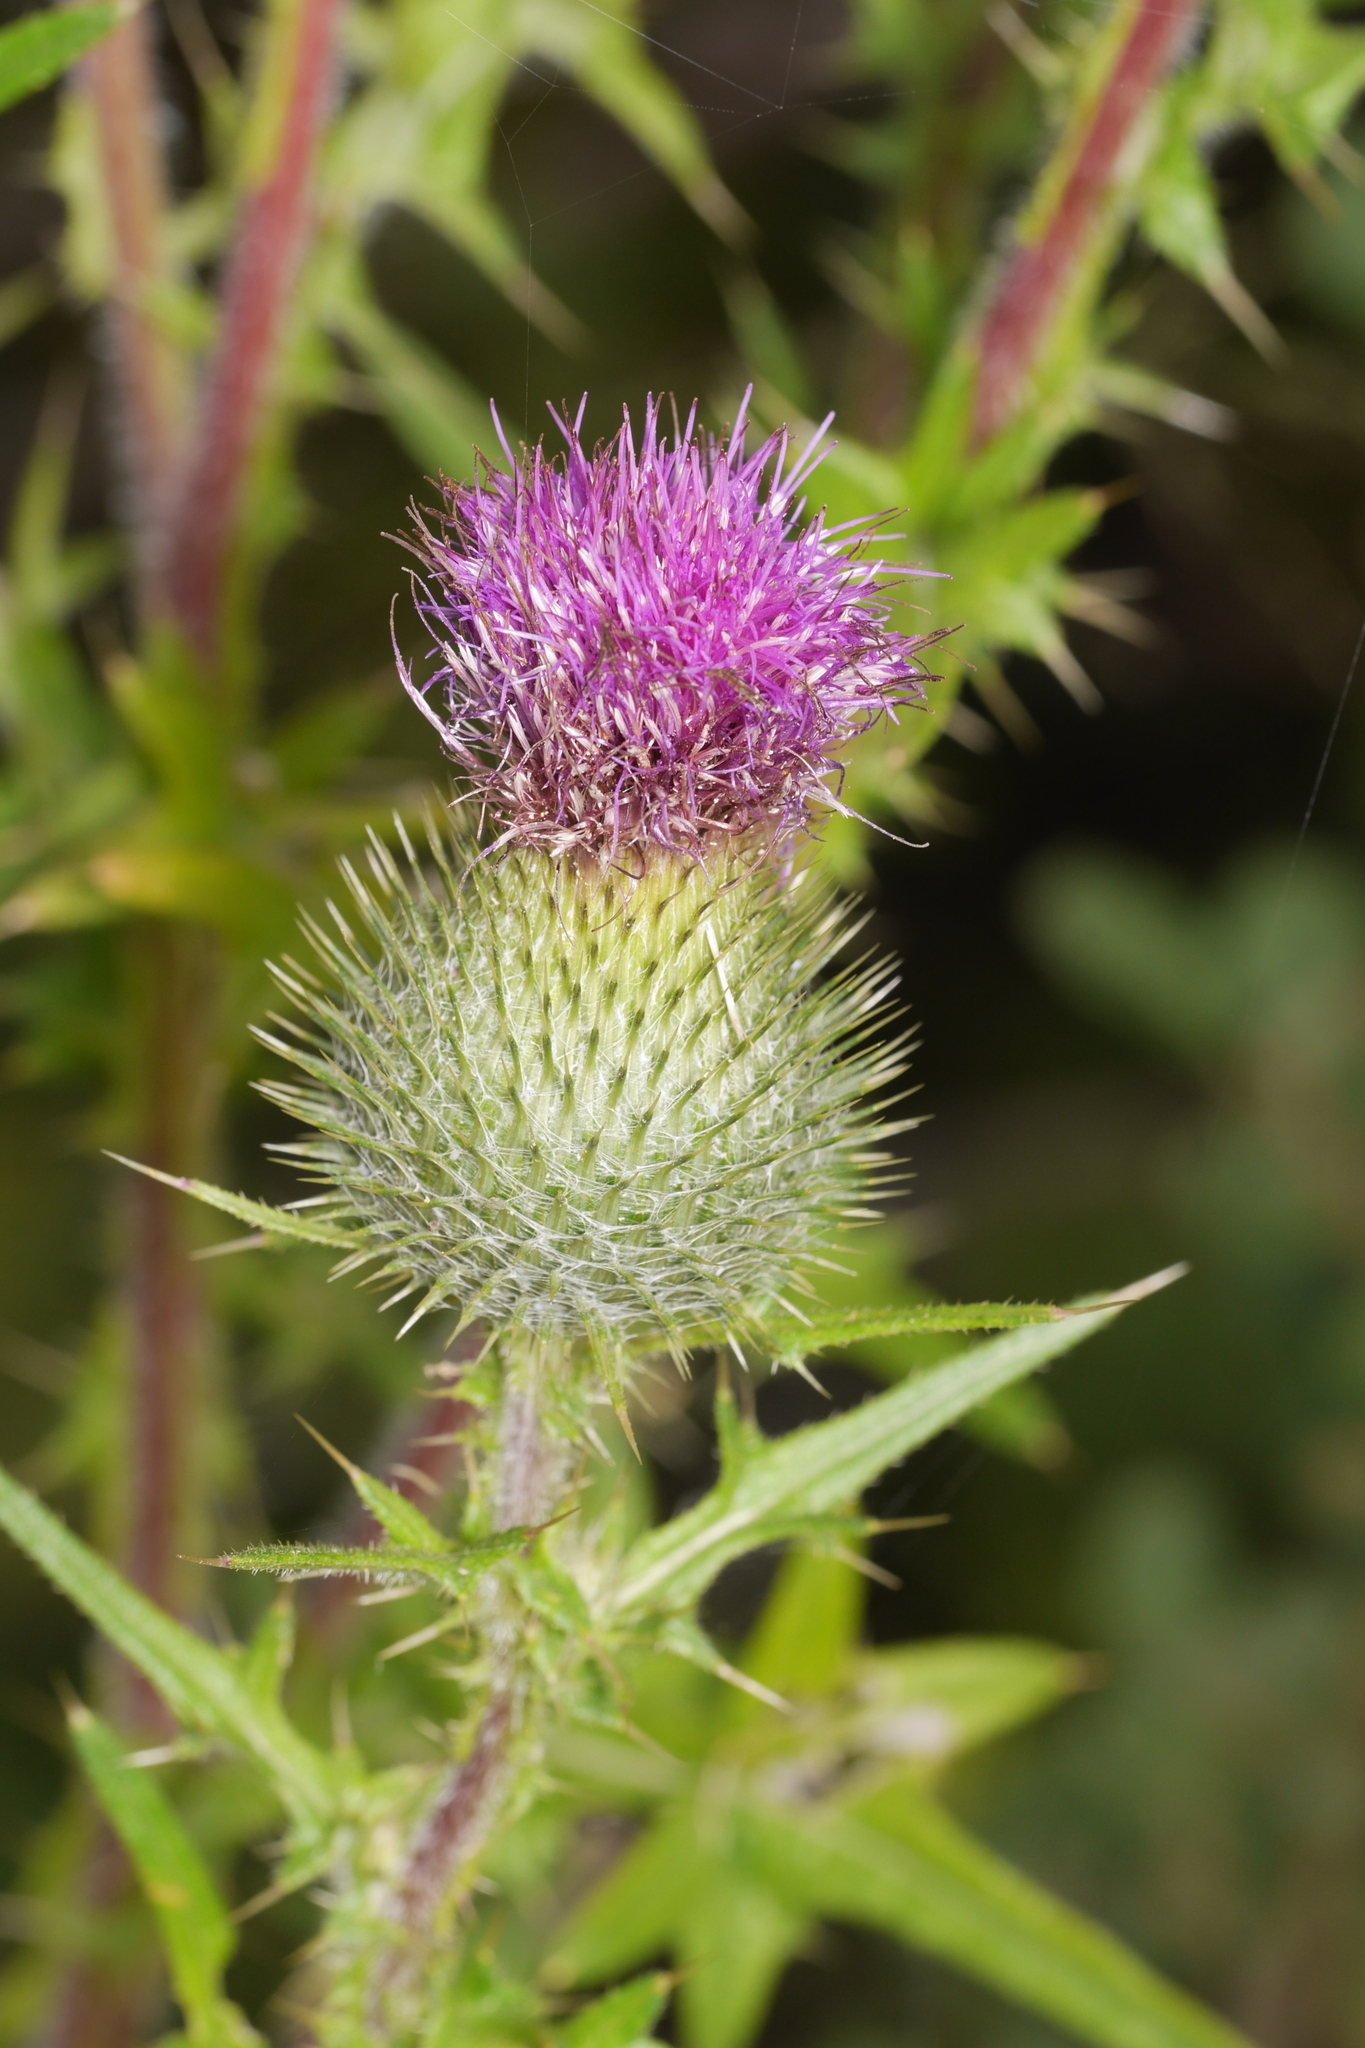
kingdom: Plantae
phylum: Tracheophyta
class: Magnoliopsida
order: Asterales
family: Asteraceae
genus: Cirsium
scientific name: Cirsium vulgare
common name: Bull thistle
